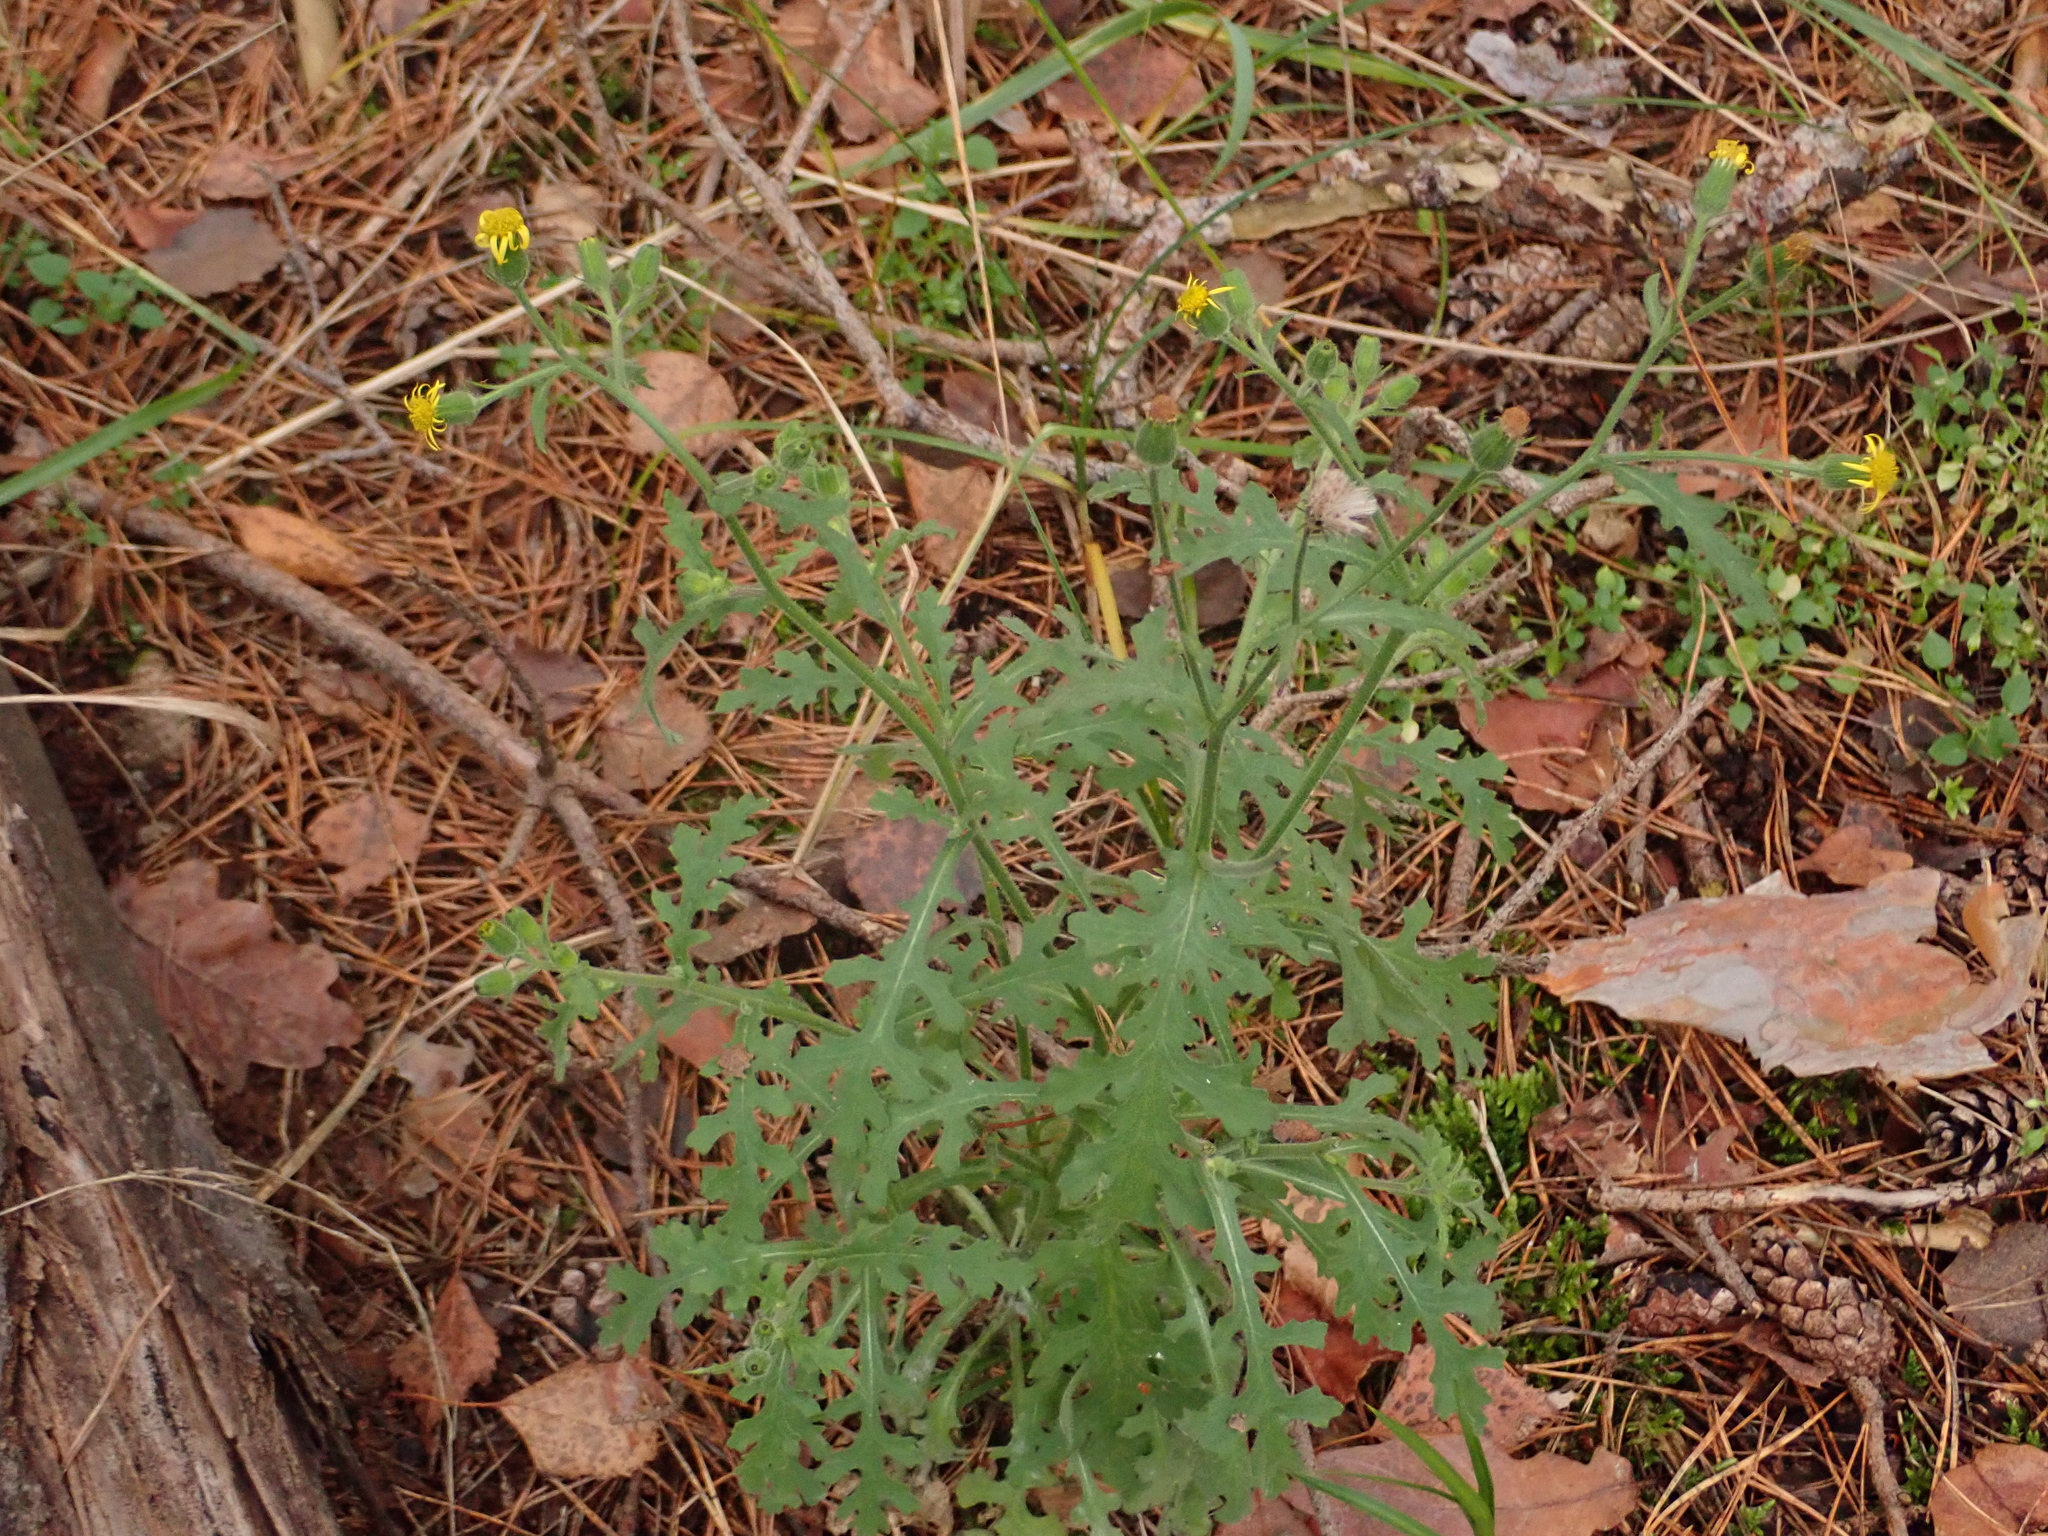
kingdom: Plantae
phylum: Tracheophyta
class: Magnoliopsida
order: Asterales
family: Asteraceae
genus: Senecio
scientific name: Senecio viscosus
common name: Sticky groundsel
